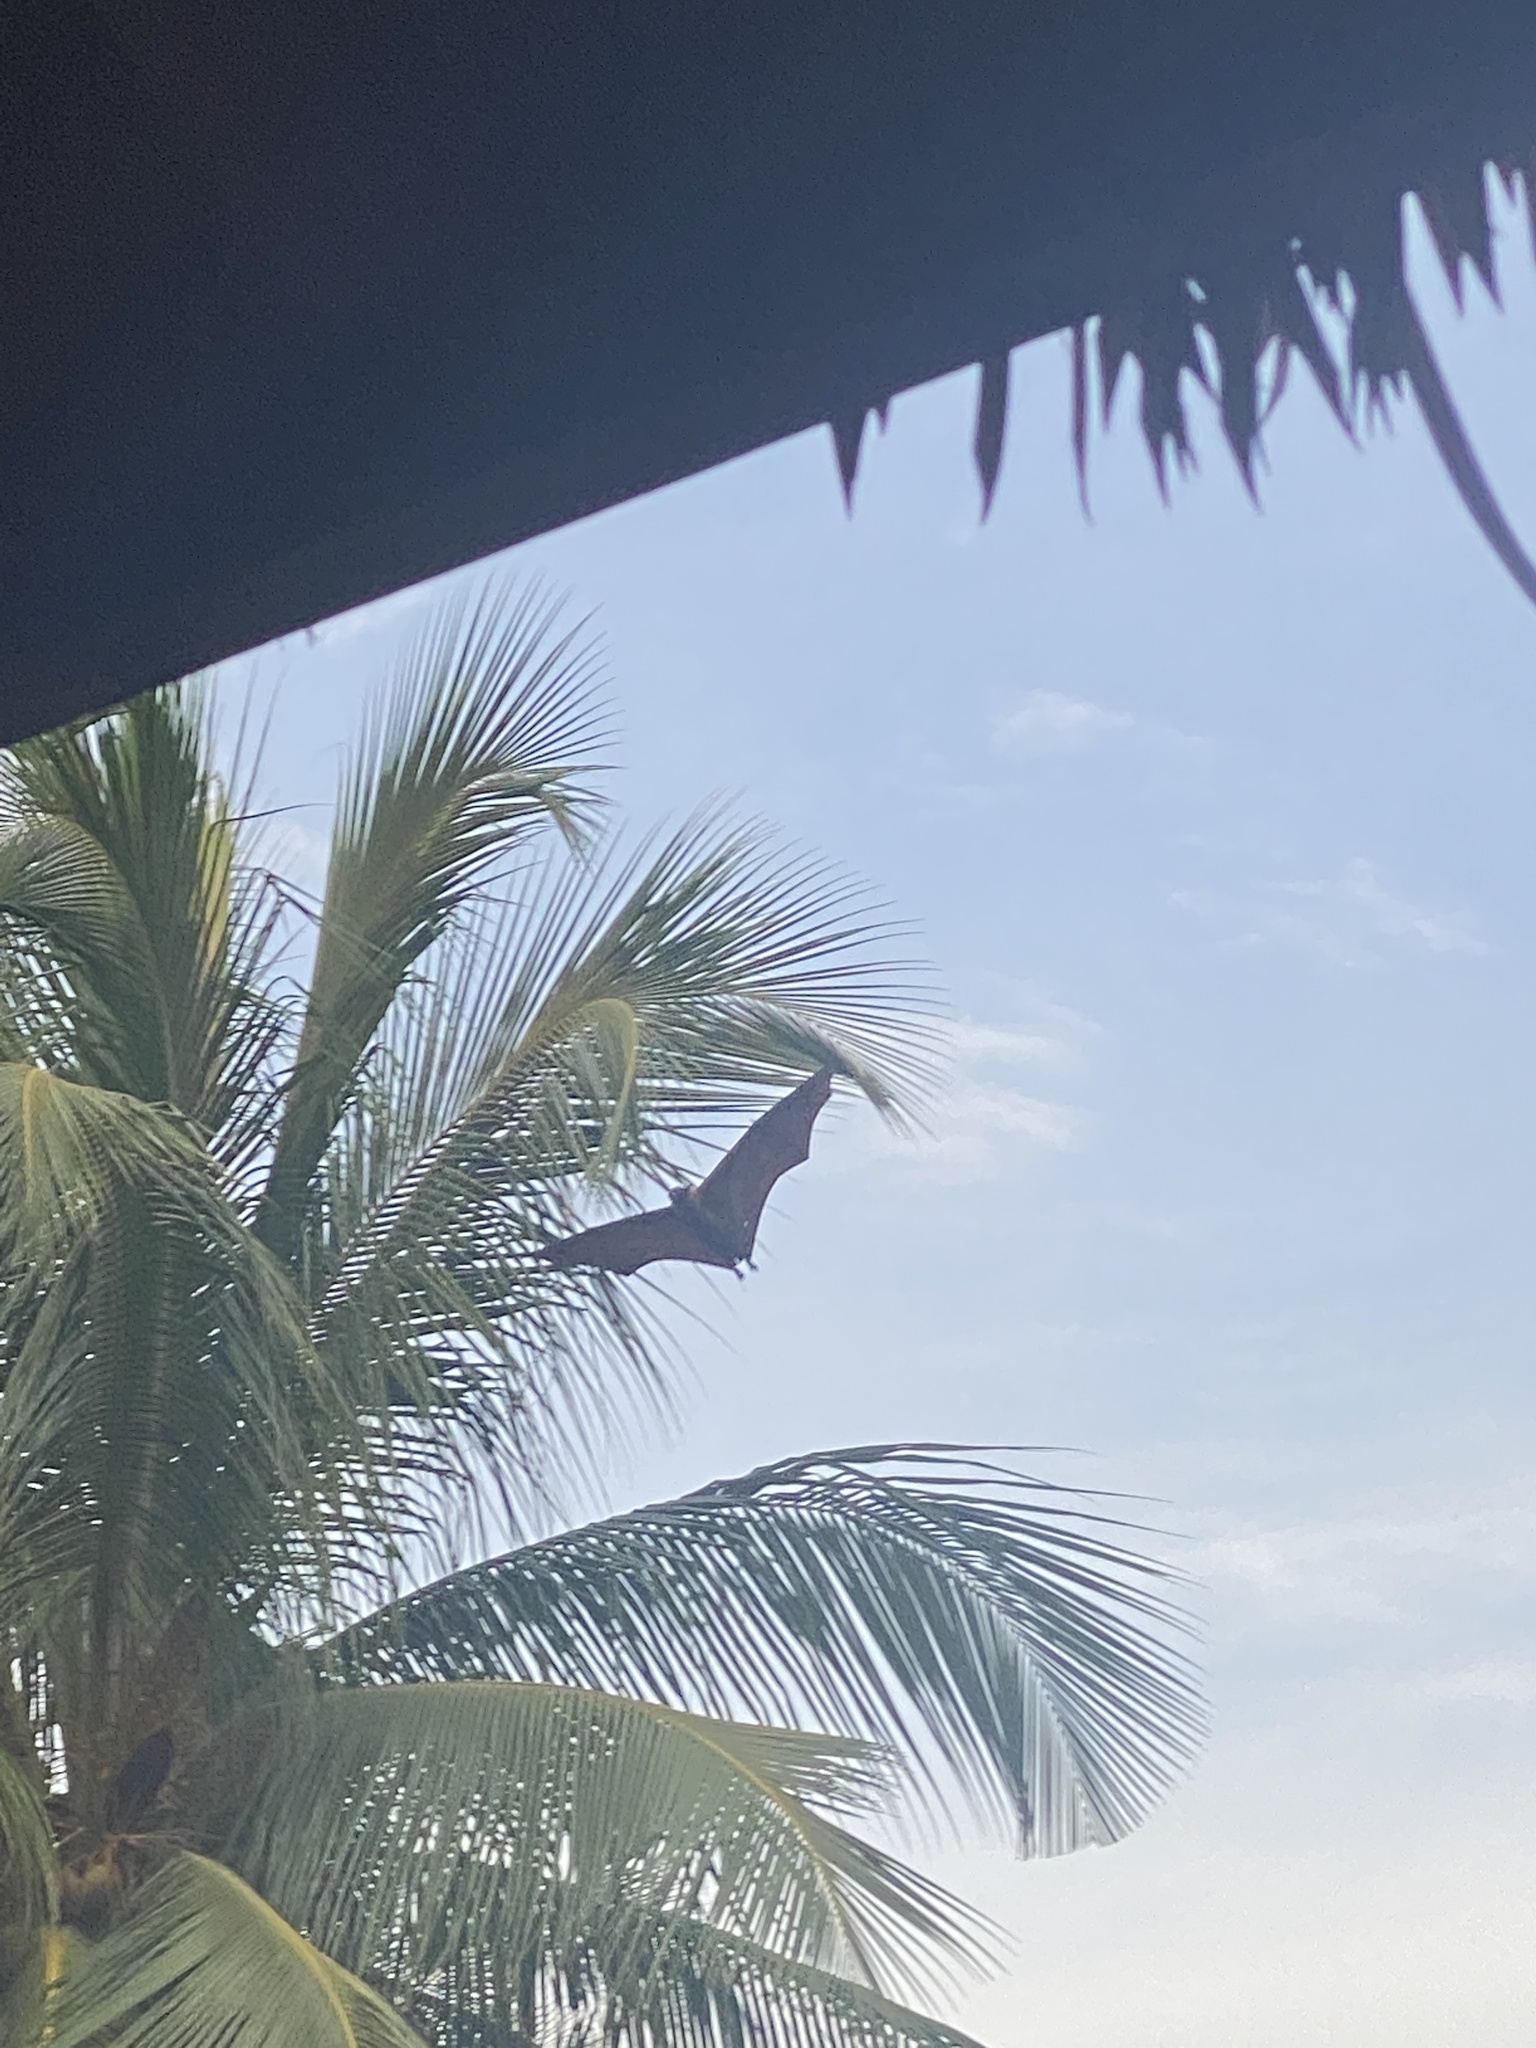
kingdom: Animalia
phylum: Chordata
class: Mammalia
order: Chiroptera
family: Pteropodidae
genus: Pteropus
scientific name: Pteropus vampyrus
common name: Large flying fox
